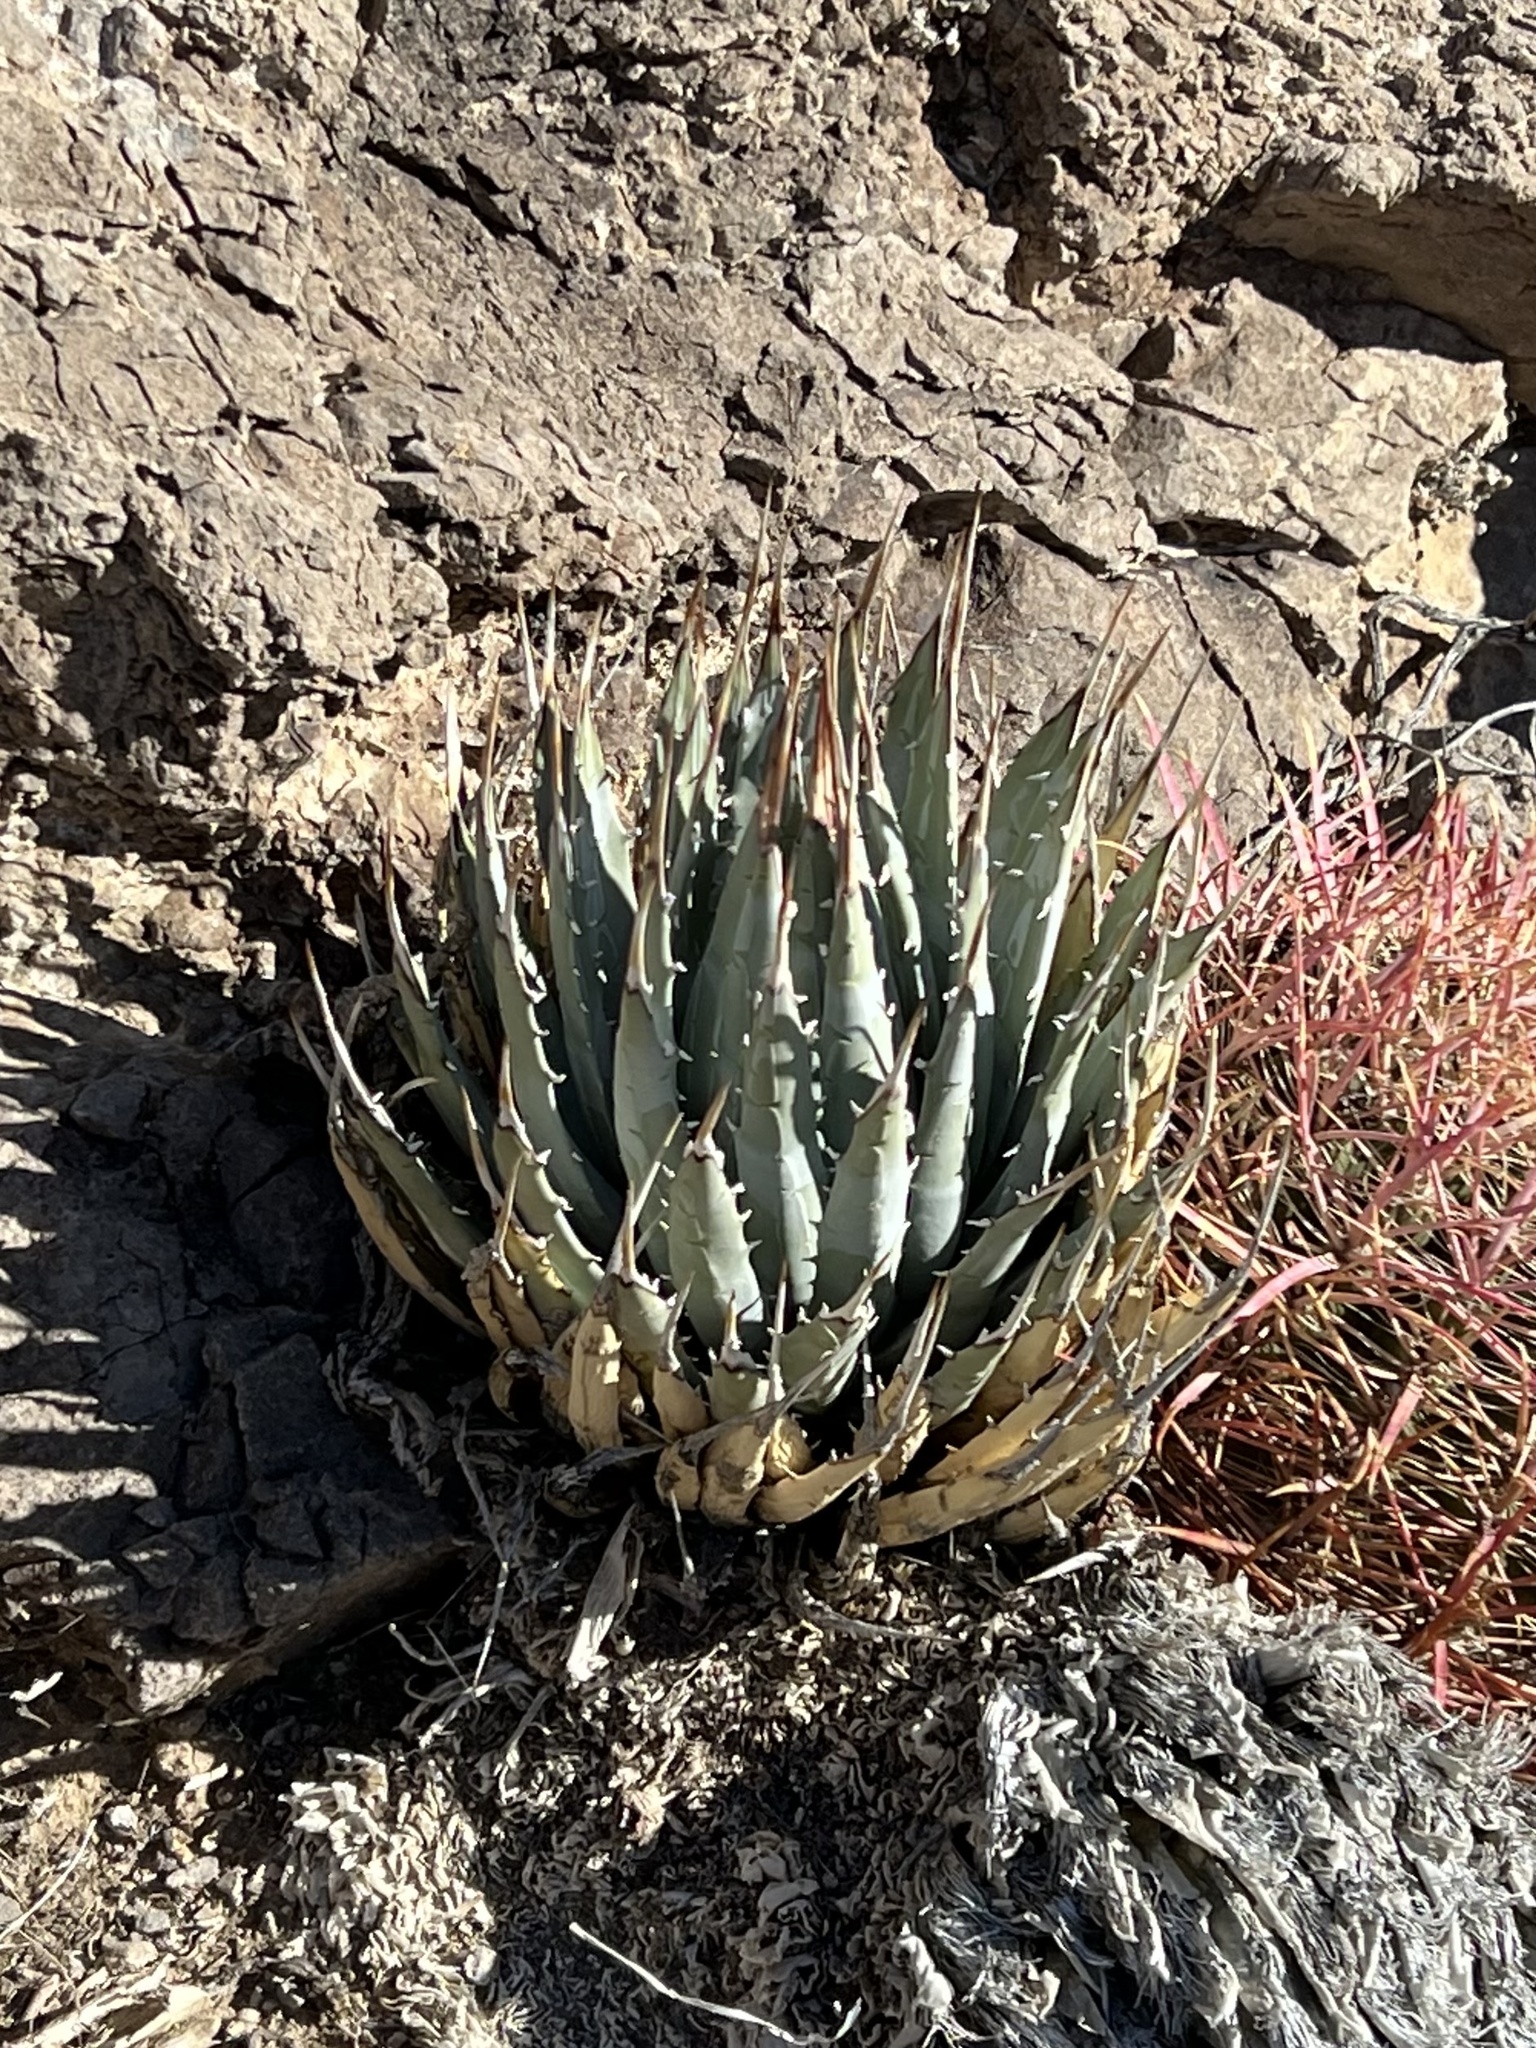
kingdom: Plantae
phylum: Tracheophyta
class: Liliopsida
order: Asparagales
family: Asparagaceae
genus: Agave
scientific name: Agave utahensis
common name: Utah agave
